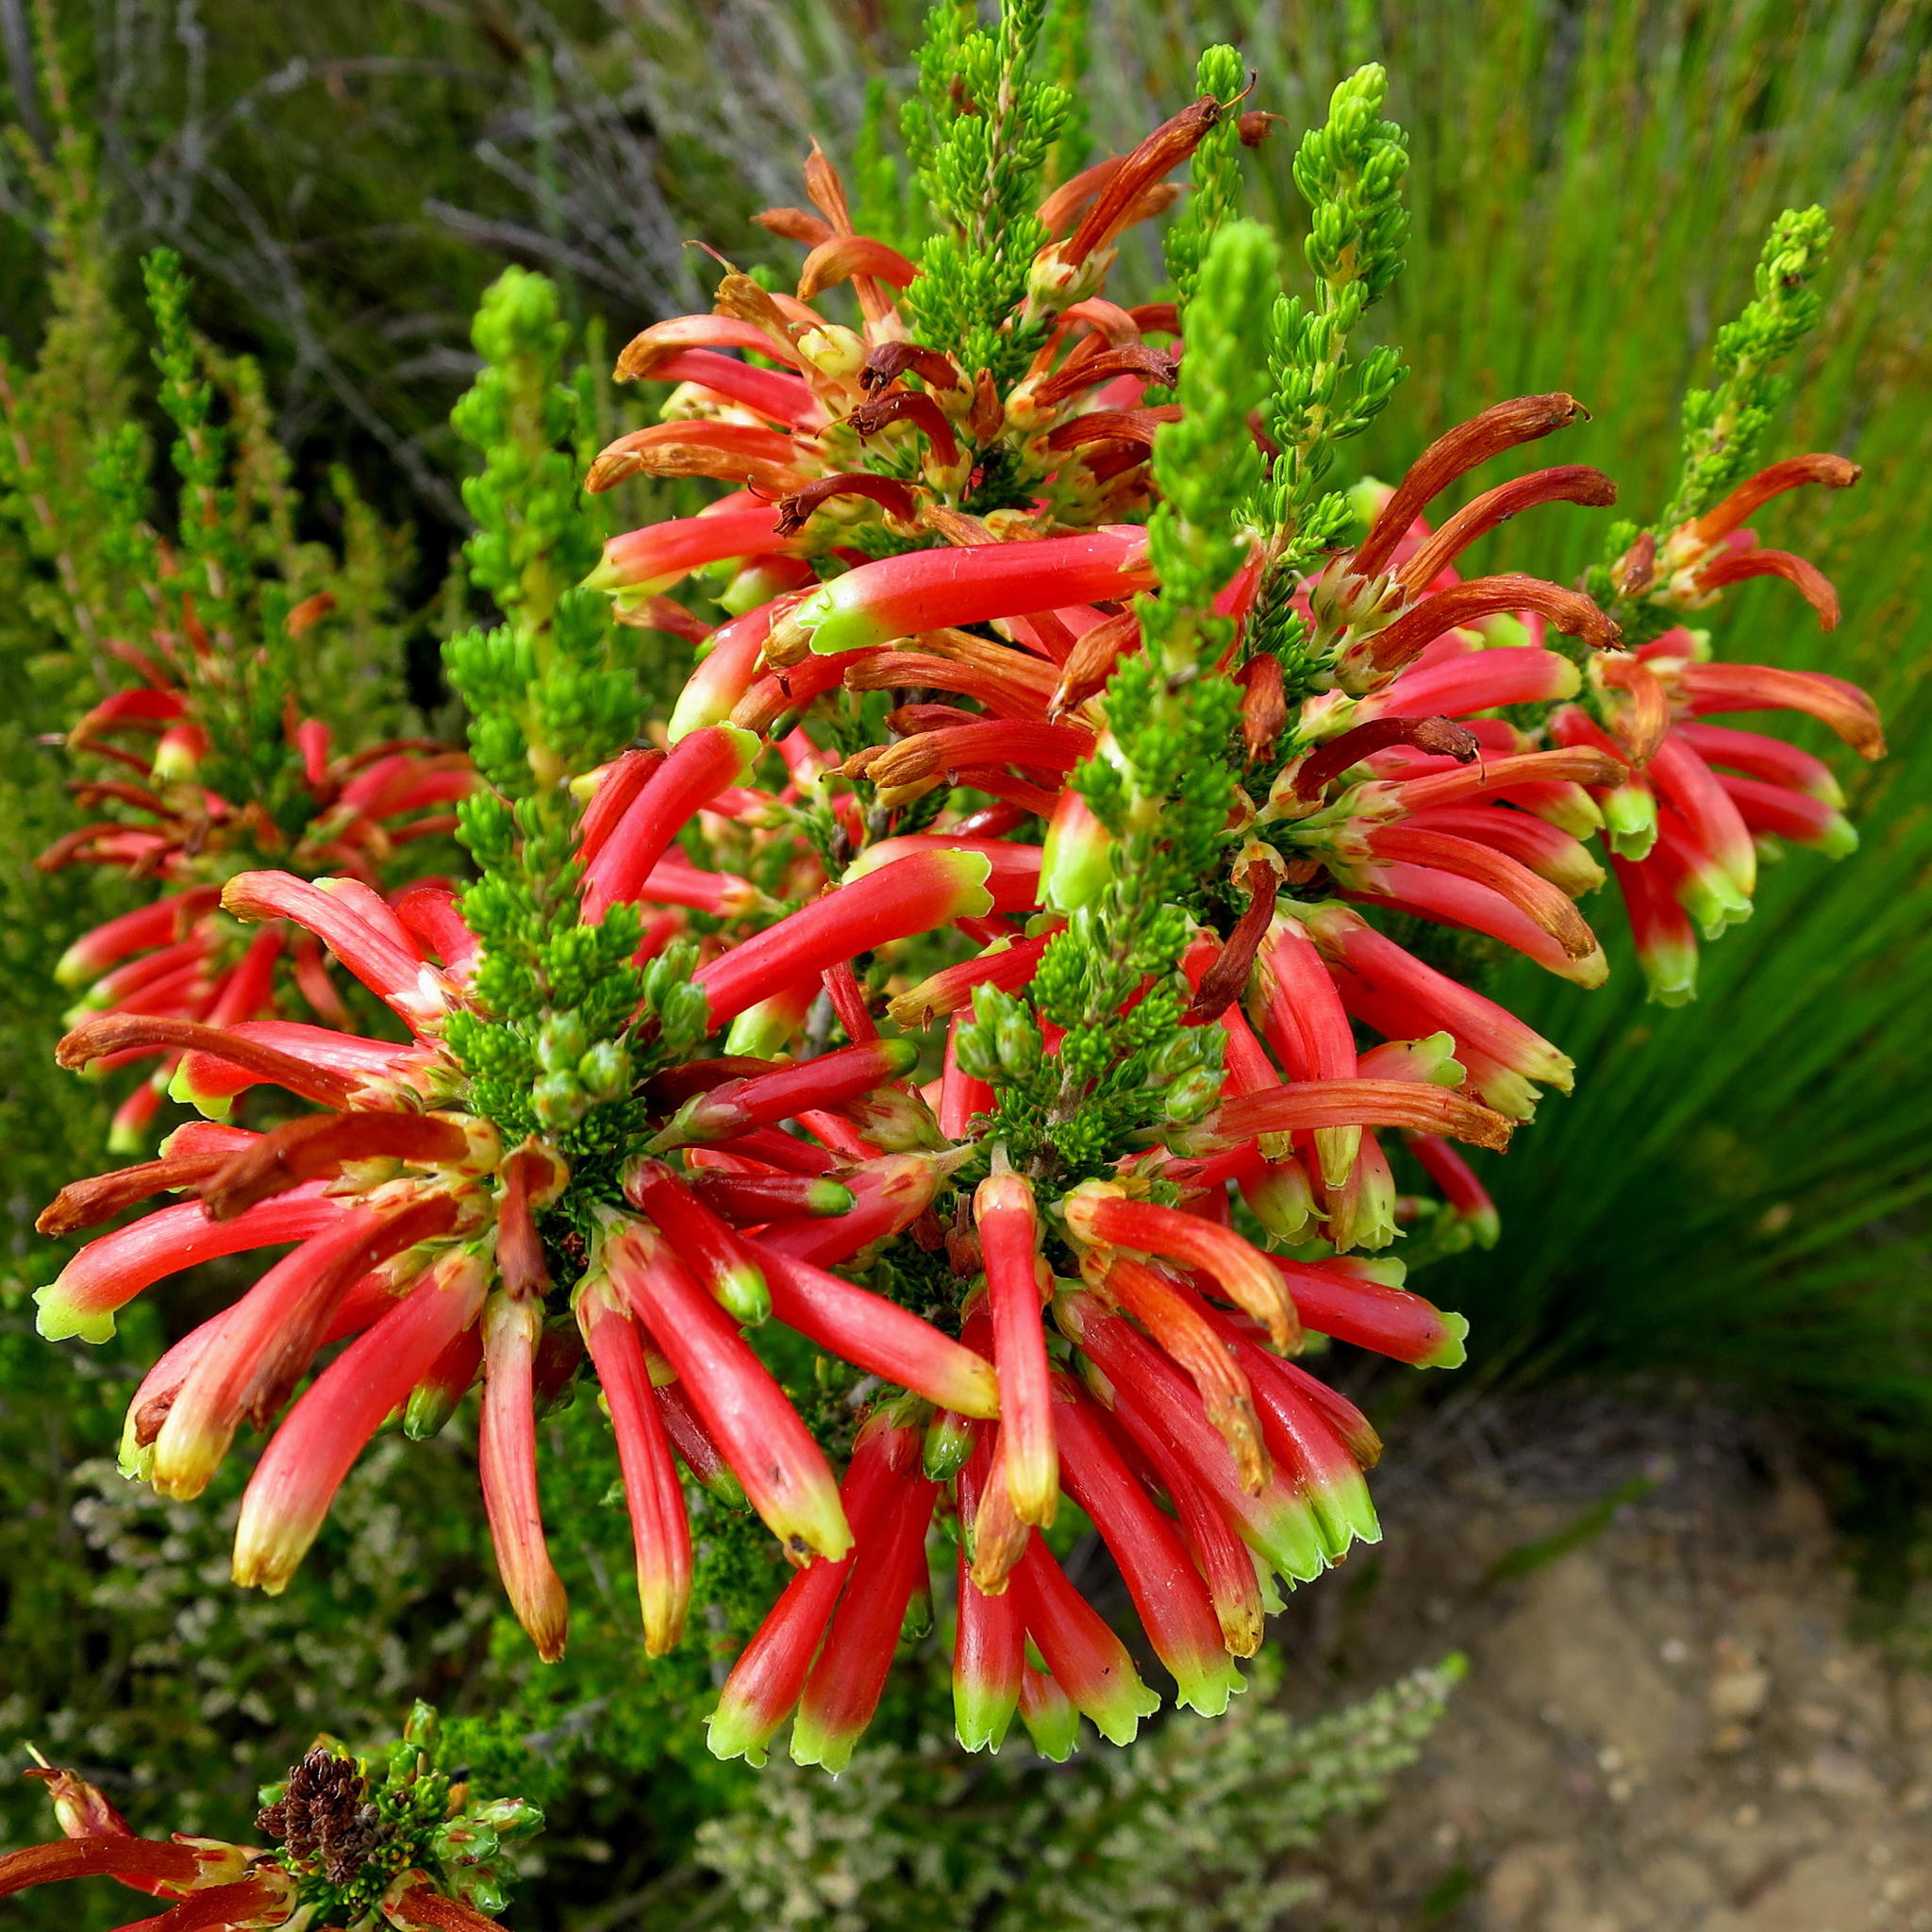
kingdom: Plantae
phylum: Tracheophyta
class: Magnoliopsida
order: Ericales
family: Ericaceae
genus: Erica
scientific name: Erica discolor
